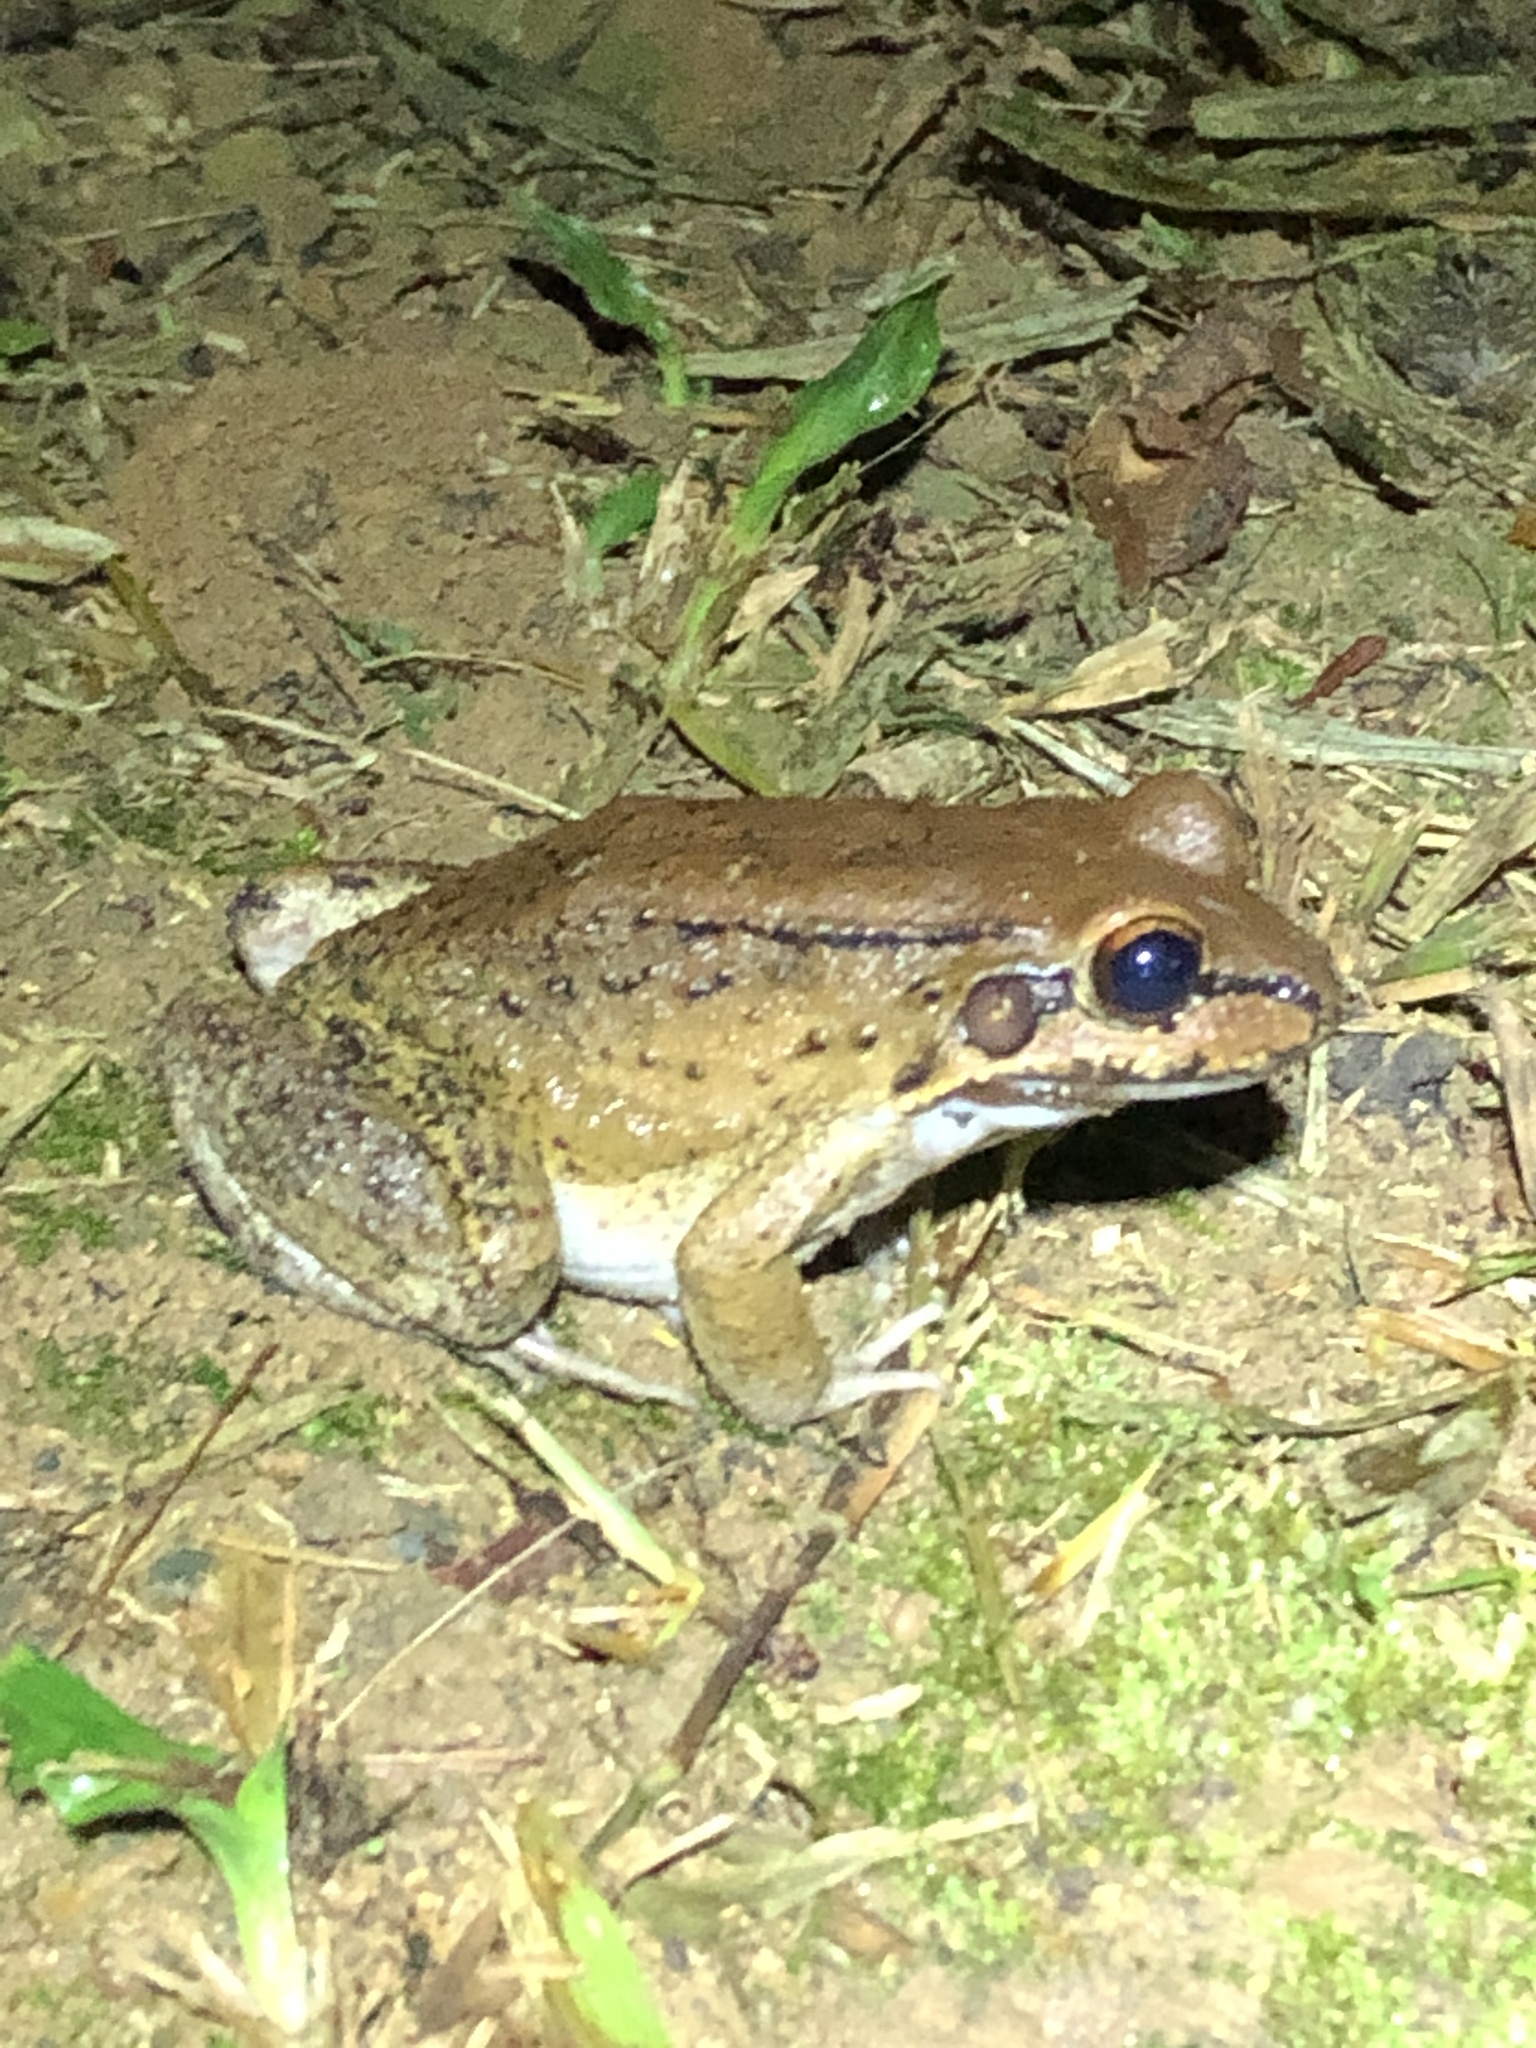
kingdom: Animalia
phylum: Chordata
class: Amphibia
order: Anura
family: Leptodactylidae
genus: Leptodactylus
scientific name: Leptodactylus rhodonotus
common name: Peru white-lipped frog
